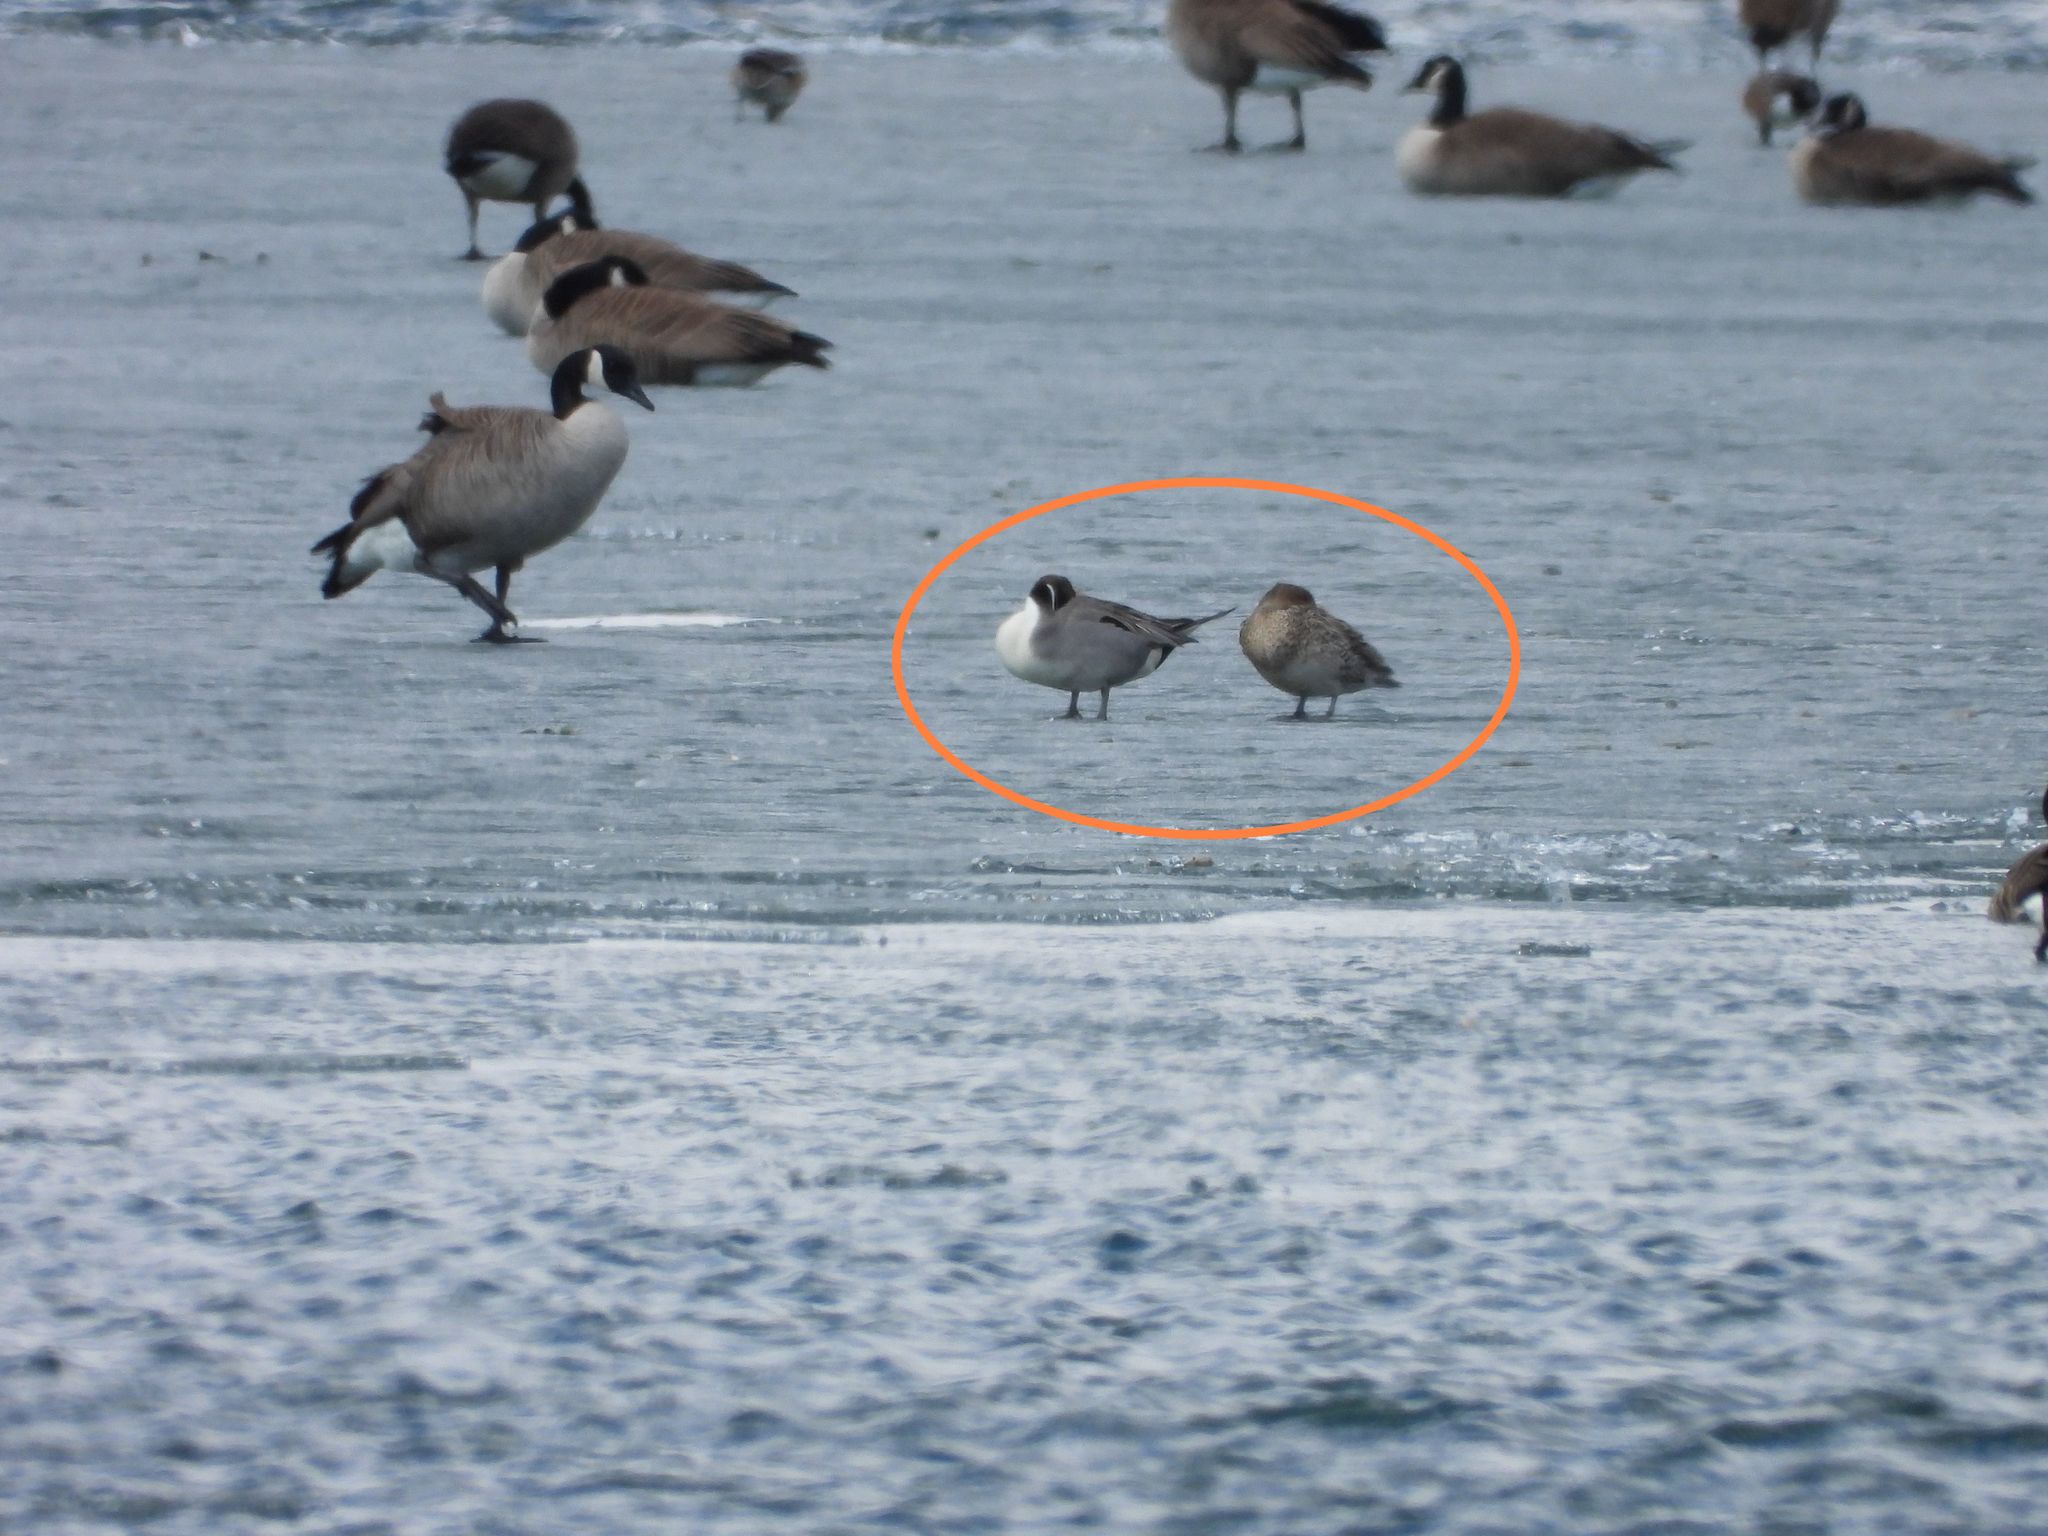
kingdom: Animalia
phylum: Chordata
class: Aves
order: Anseriformes
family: Anatidae
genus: Anas
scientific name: Anas acuta
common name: Northern pintail
